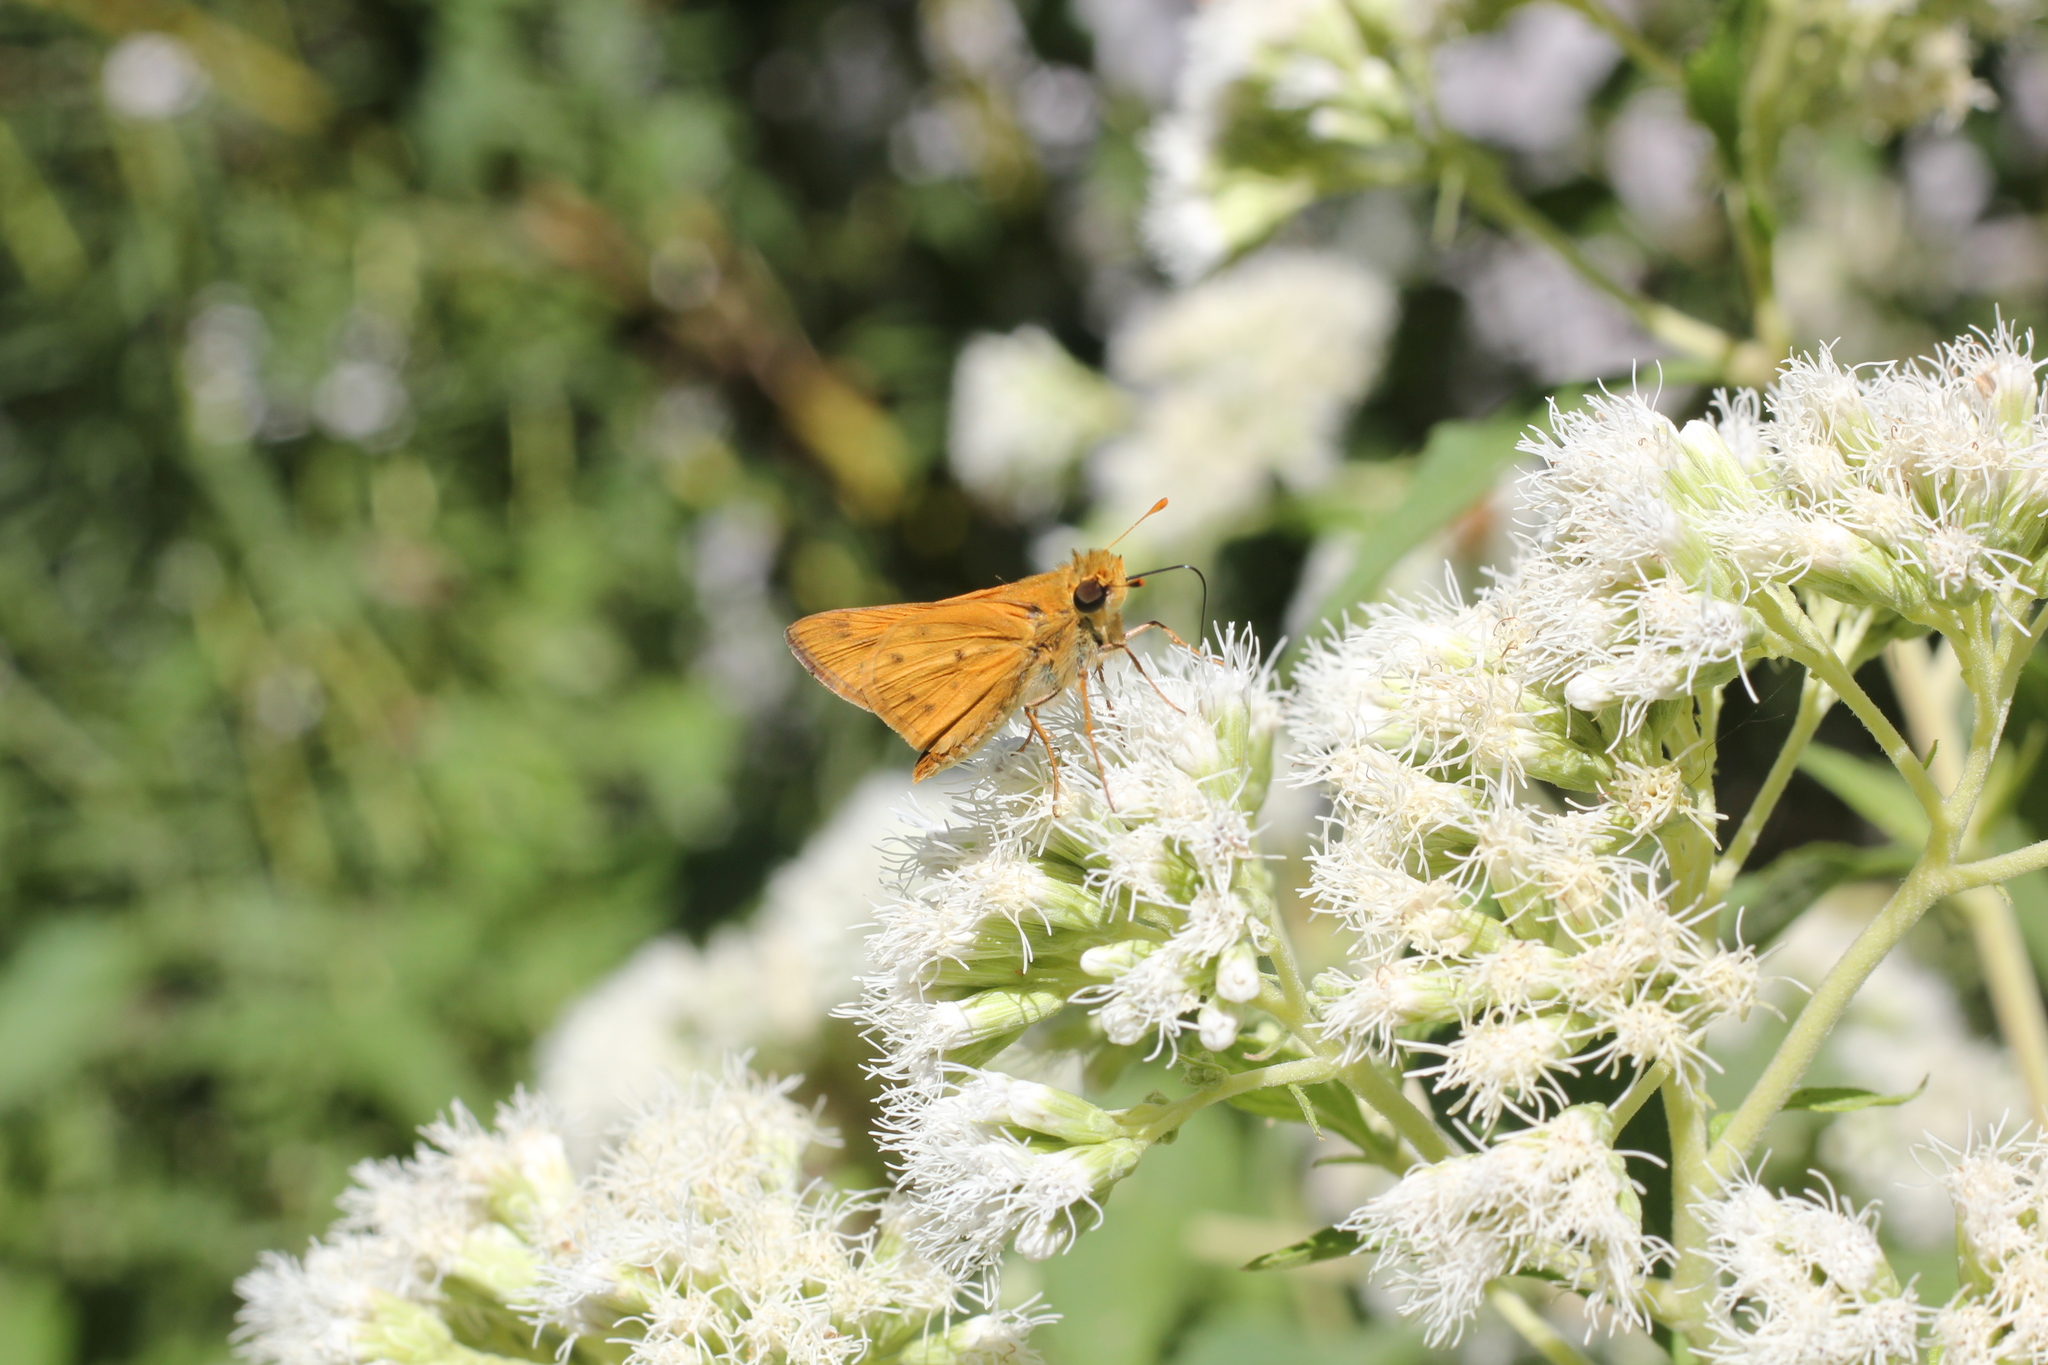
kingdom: Animalia
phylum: Arthropoda
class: Insecta
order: Lepidoptera
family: Hesperiidae
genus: Hylephila
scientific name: Hylephila phyleus
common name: Fiery skipper
